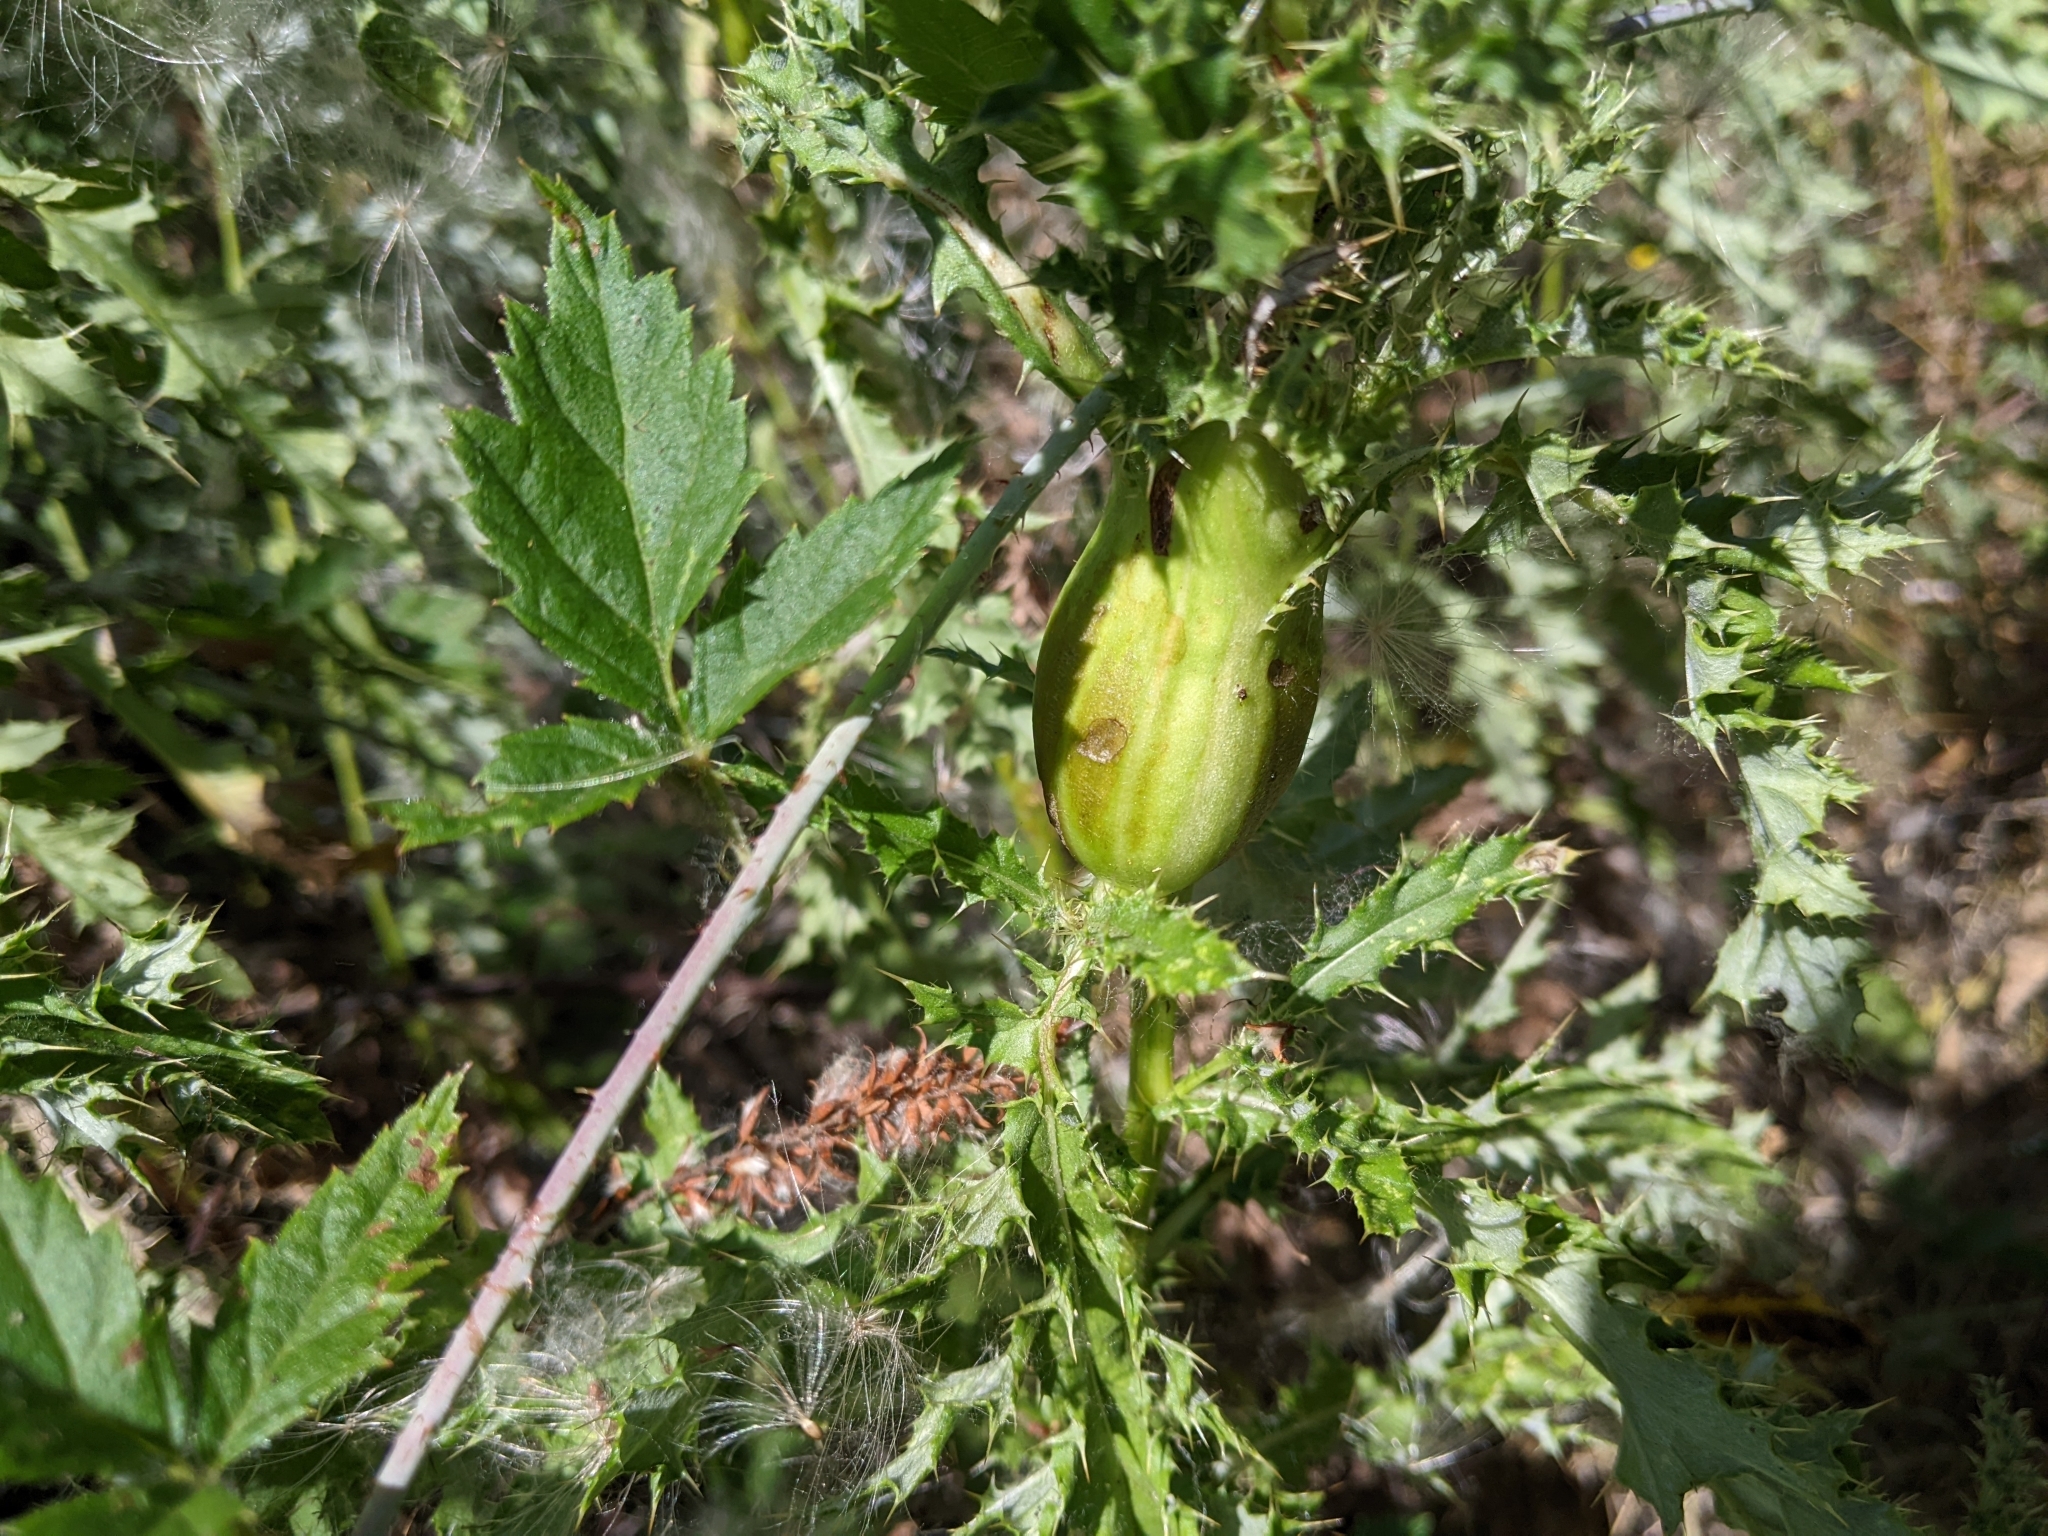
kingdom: Animalia
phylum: Arthropoda
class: Insecta
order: Diptera
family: Tephritidae
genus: Urophora
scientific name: Urophora cardui
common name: Fruit fly
